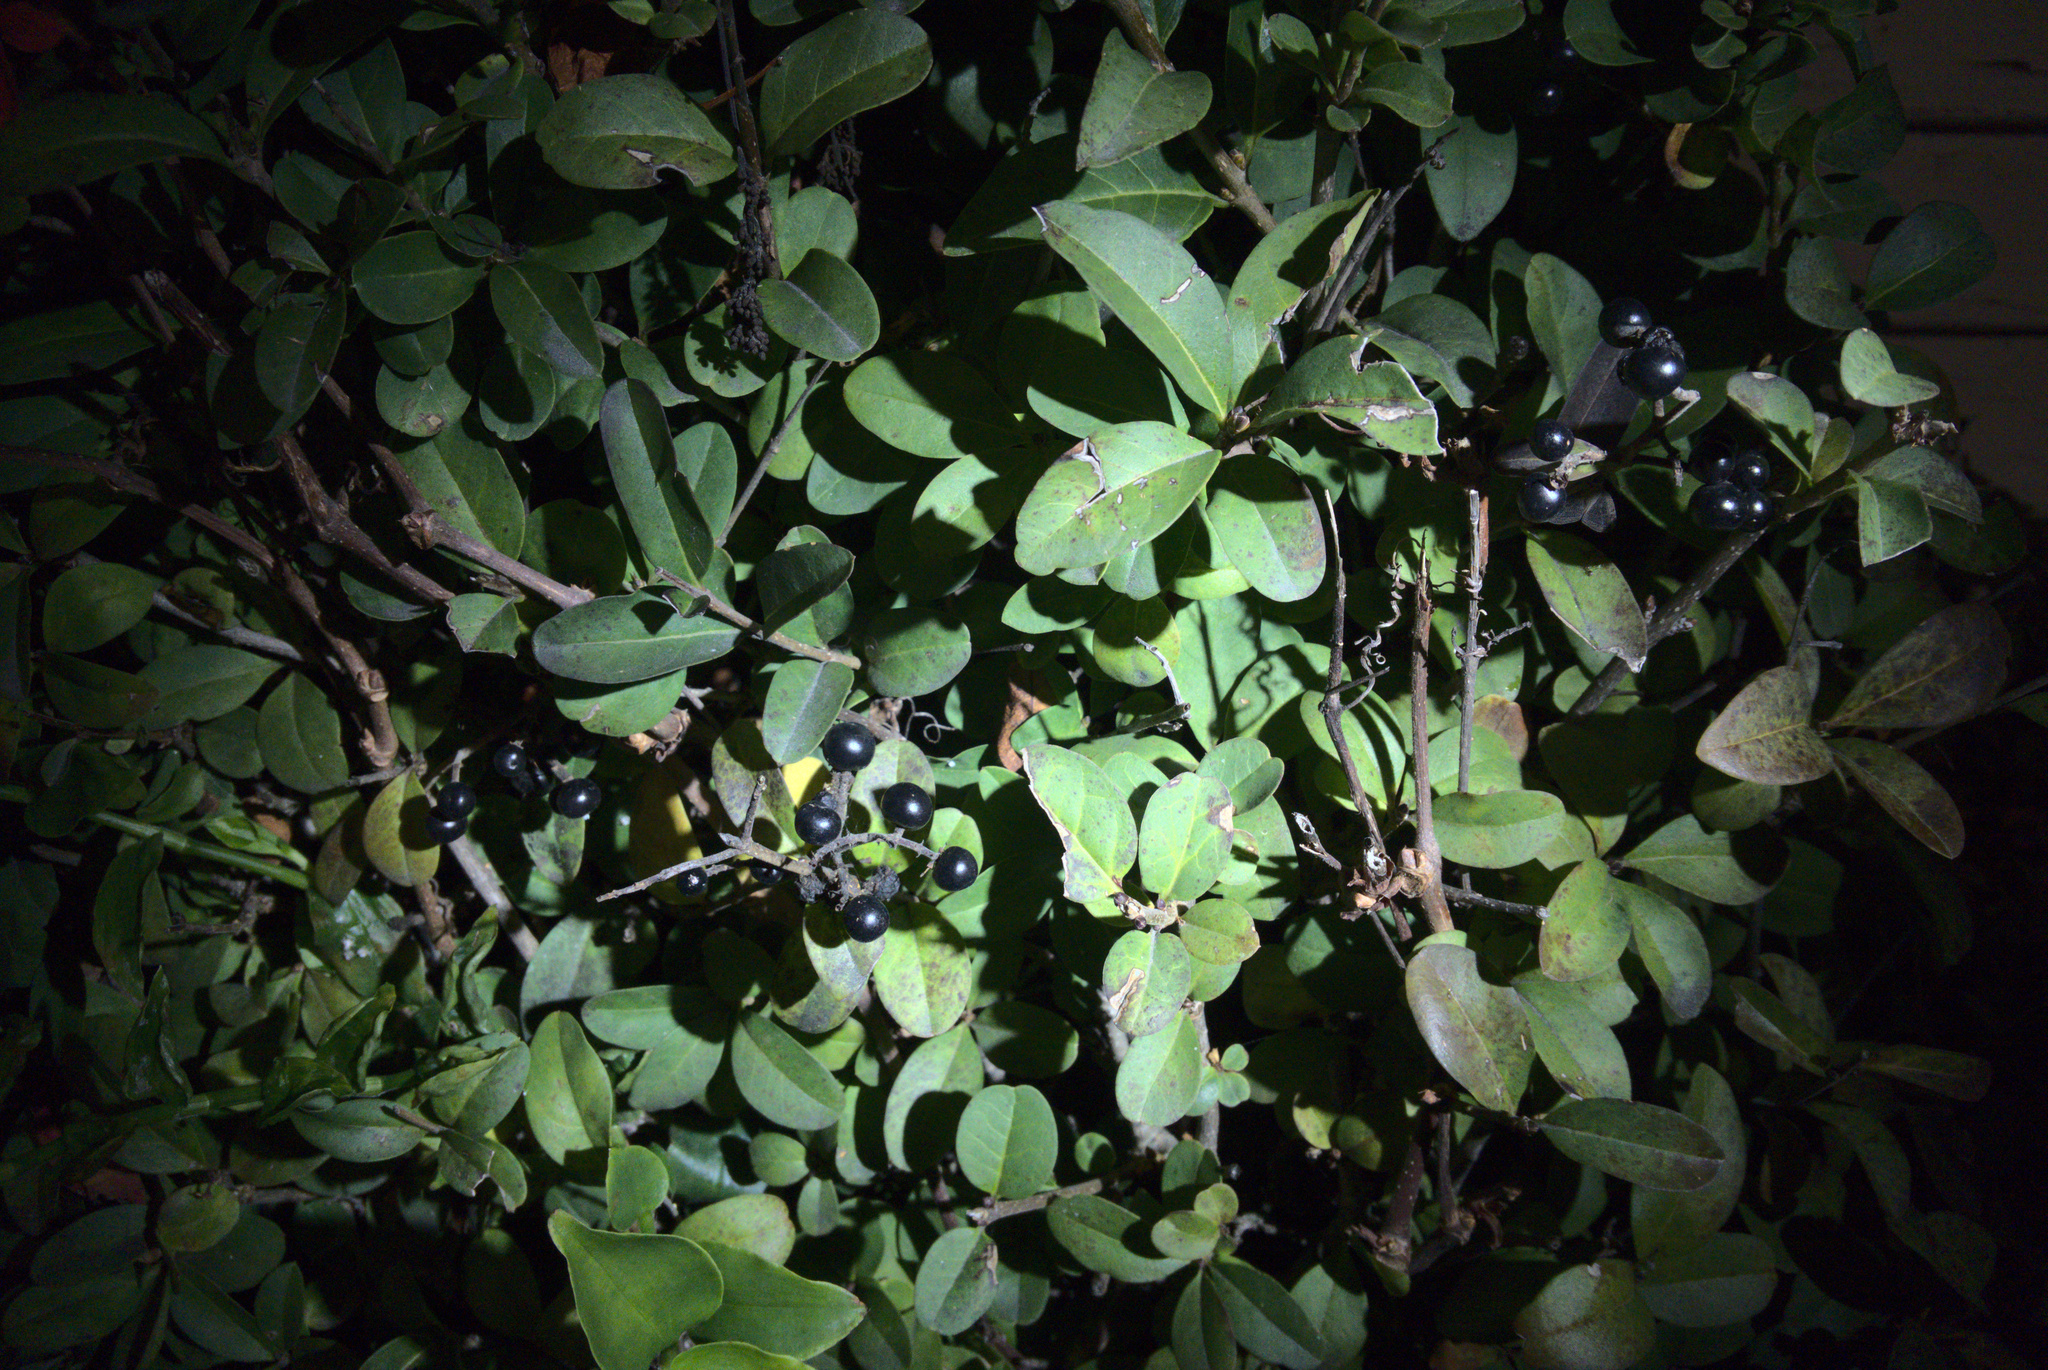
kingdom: Plantae
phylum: Tracheophyta
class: Magnoliopsida
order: Lamiales
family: Oleaceae
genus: Ligustrum
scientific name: Ligustrum vulgare
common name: Wild privet
